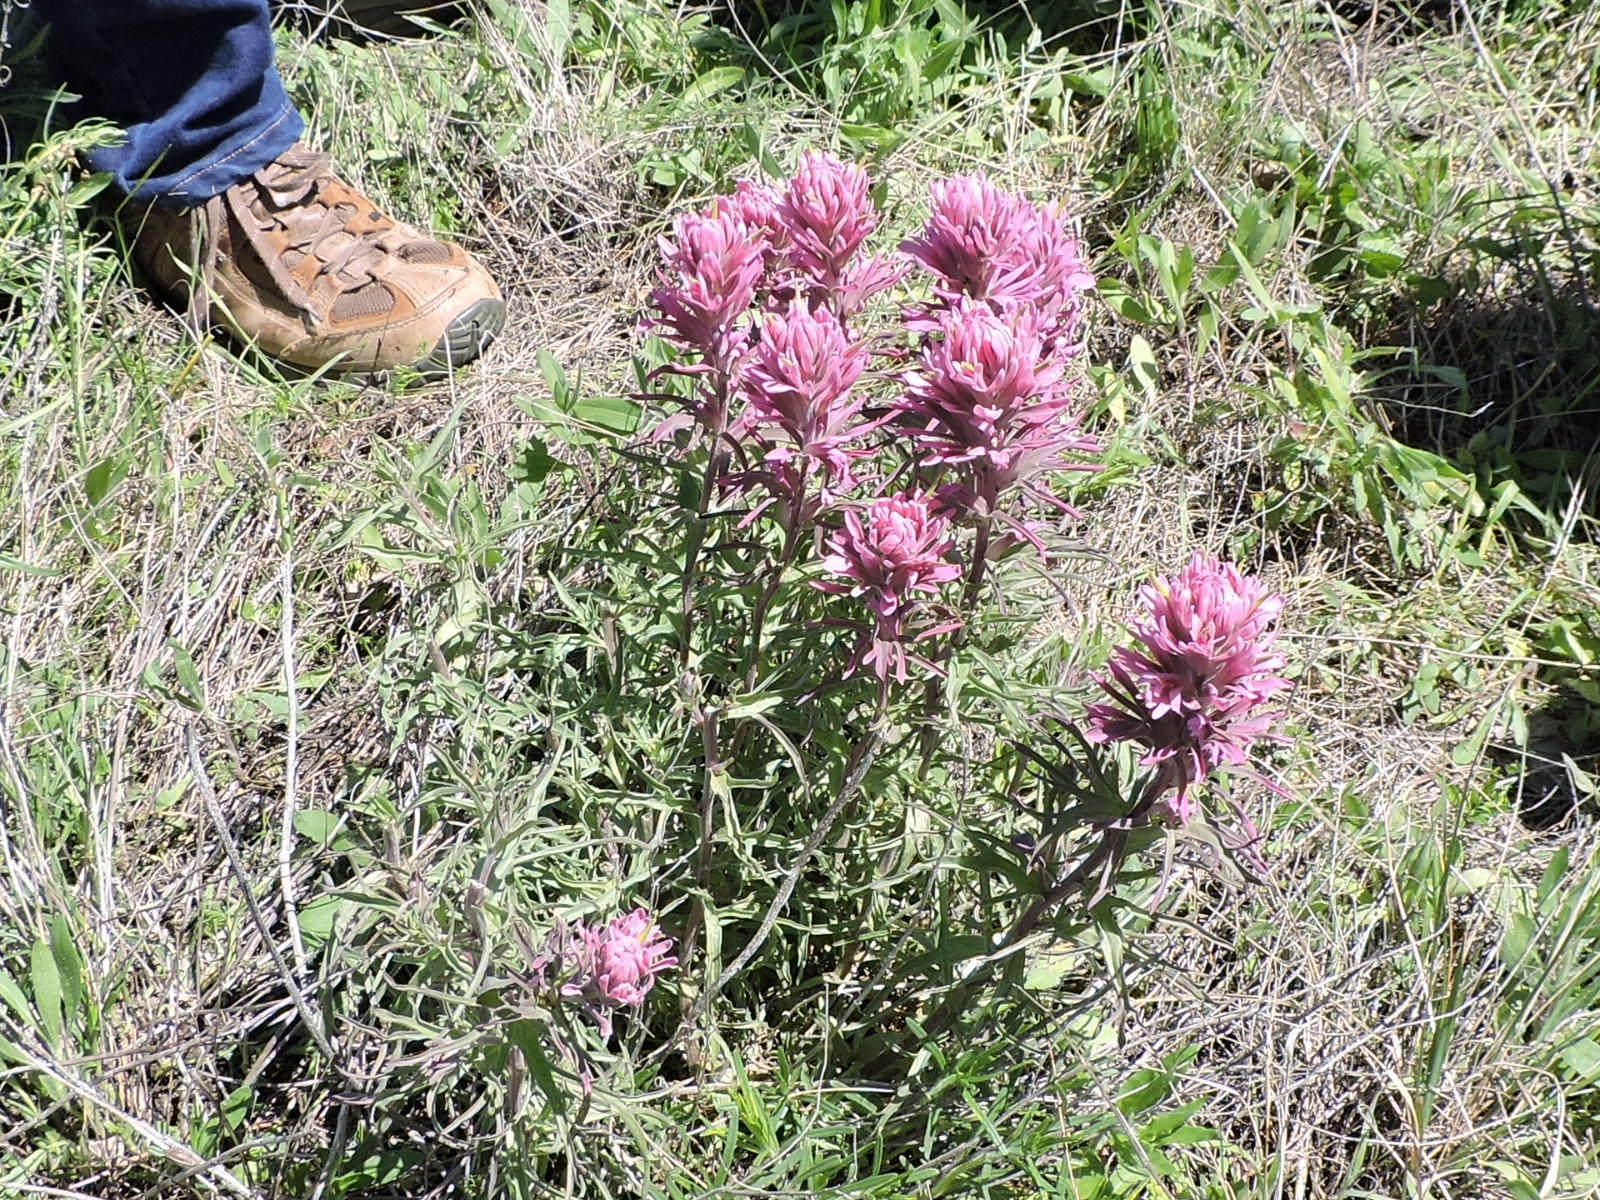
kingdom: Plantae
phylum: Tracheophyta
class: Magnoliopsida
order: Lamiales
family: Orobanchaceae
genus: Castilleja
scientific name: Castilleja purpurea
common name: Plains paintbrush
